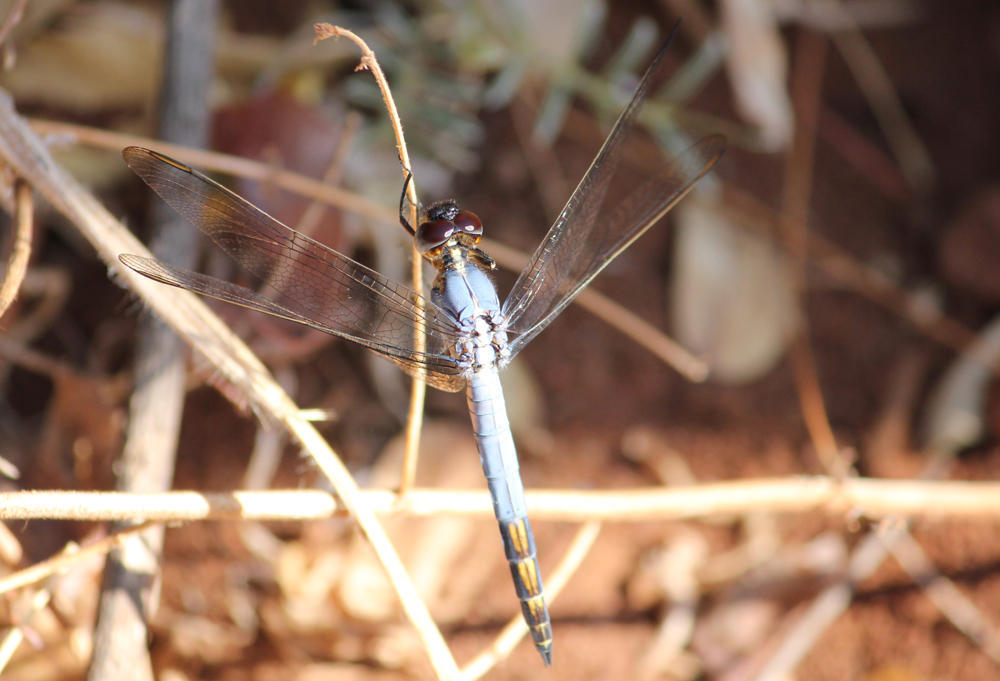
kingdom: Animalia
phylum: Arthropoda
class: Insecta
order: Odonata
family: Libellulidae
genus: Nesciothemis
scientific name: Nesciothemis farinosa
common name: Eastern blacktail
